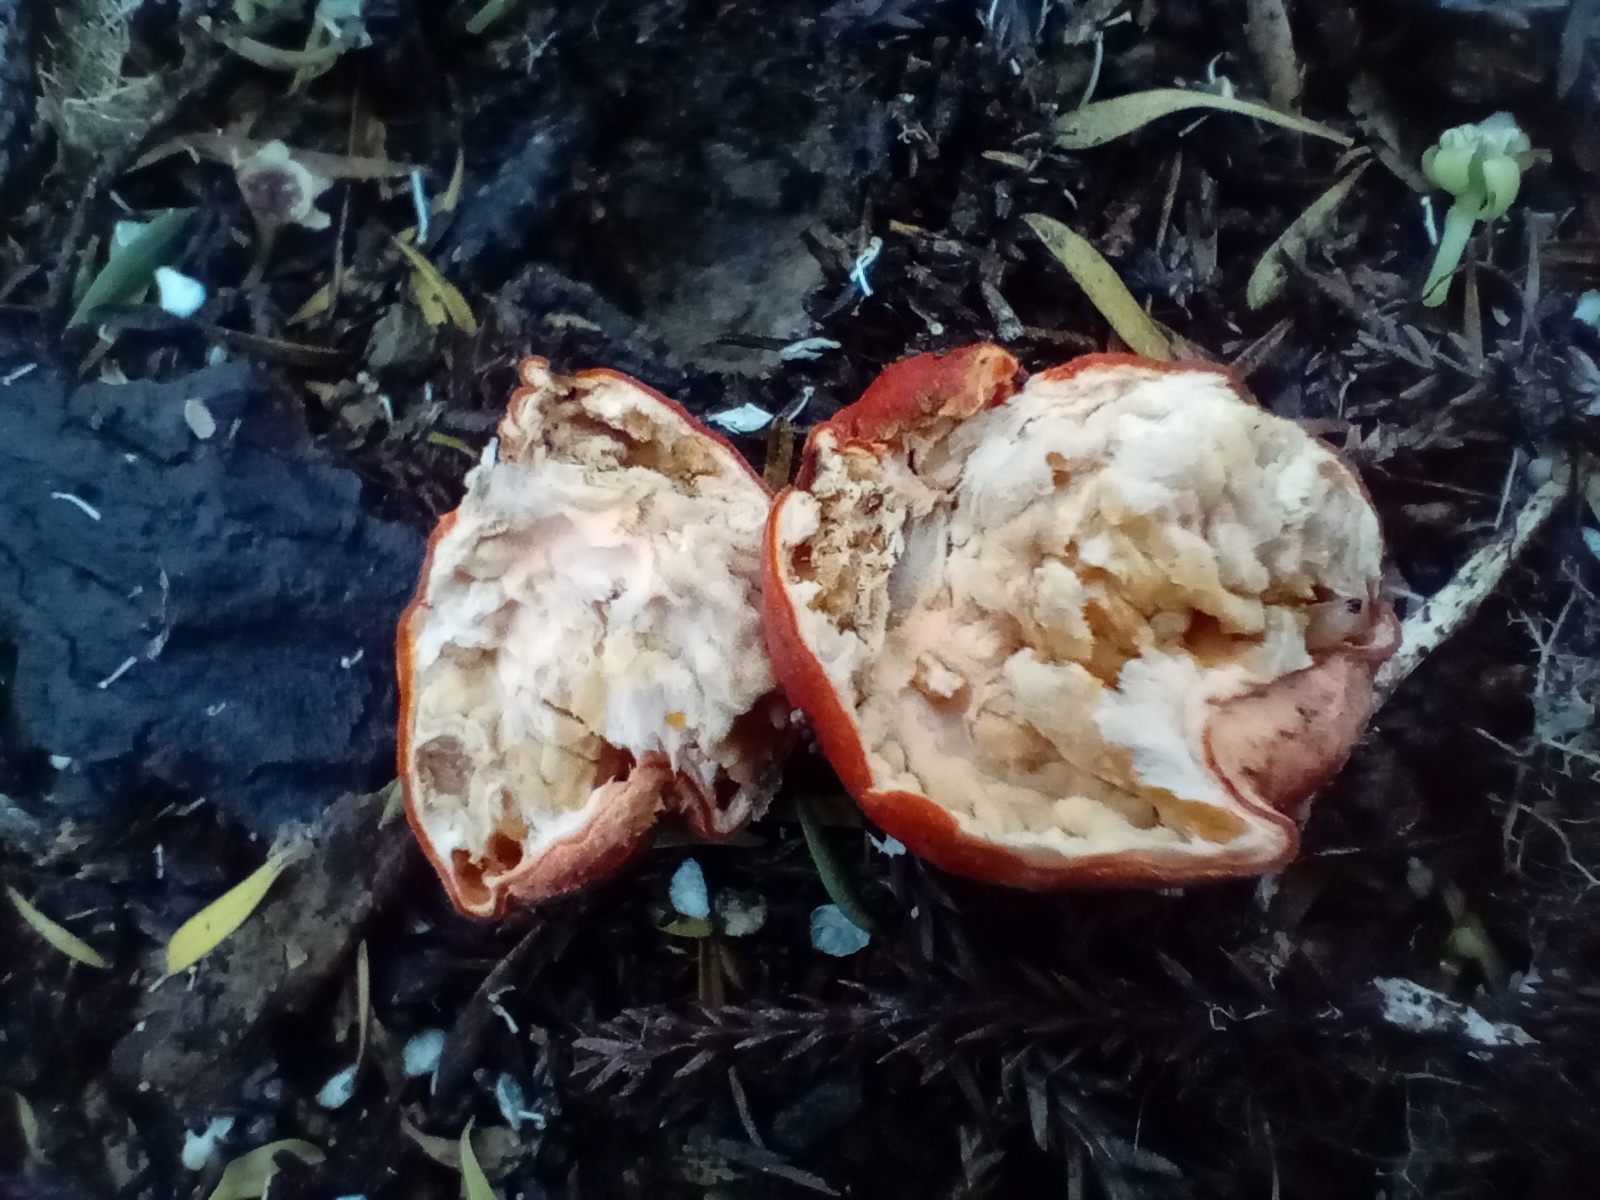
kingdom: Fungi
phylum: Ascomycota
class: Pezizomycetes
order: Pezizales
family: Pyronemataceae
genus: Paurocotylis
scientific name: Paurocotylis pila
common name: Scarlet berry truffle
